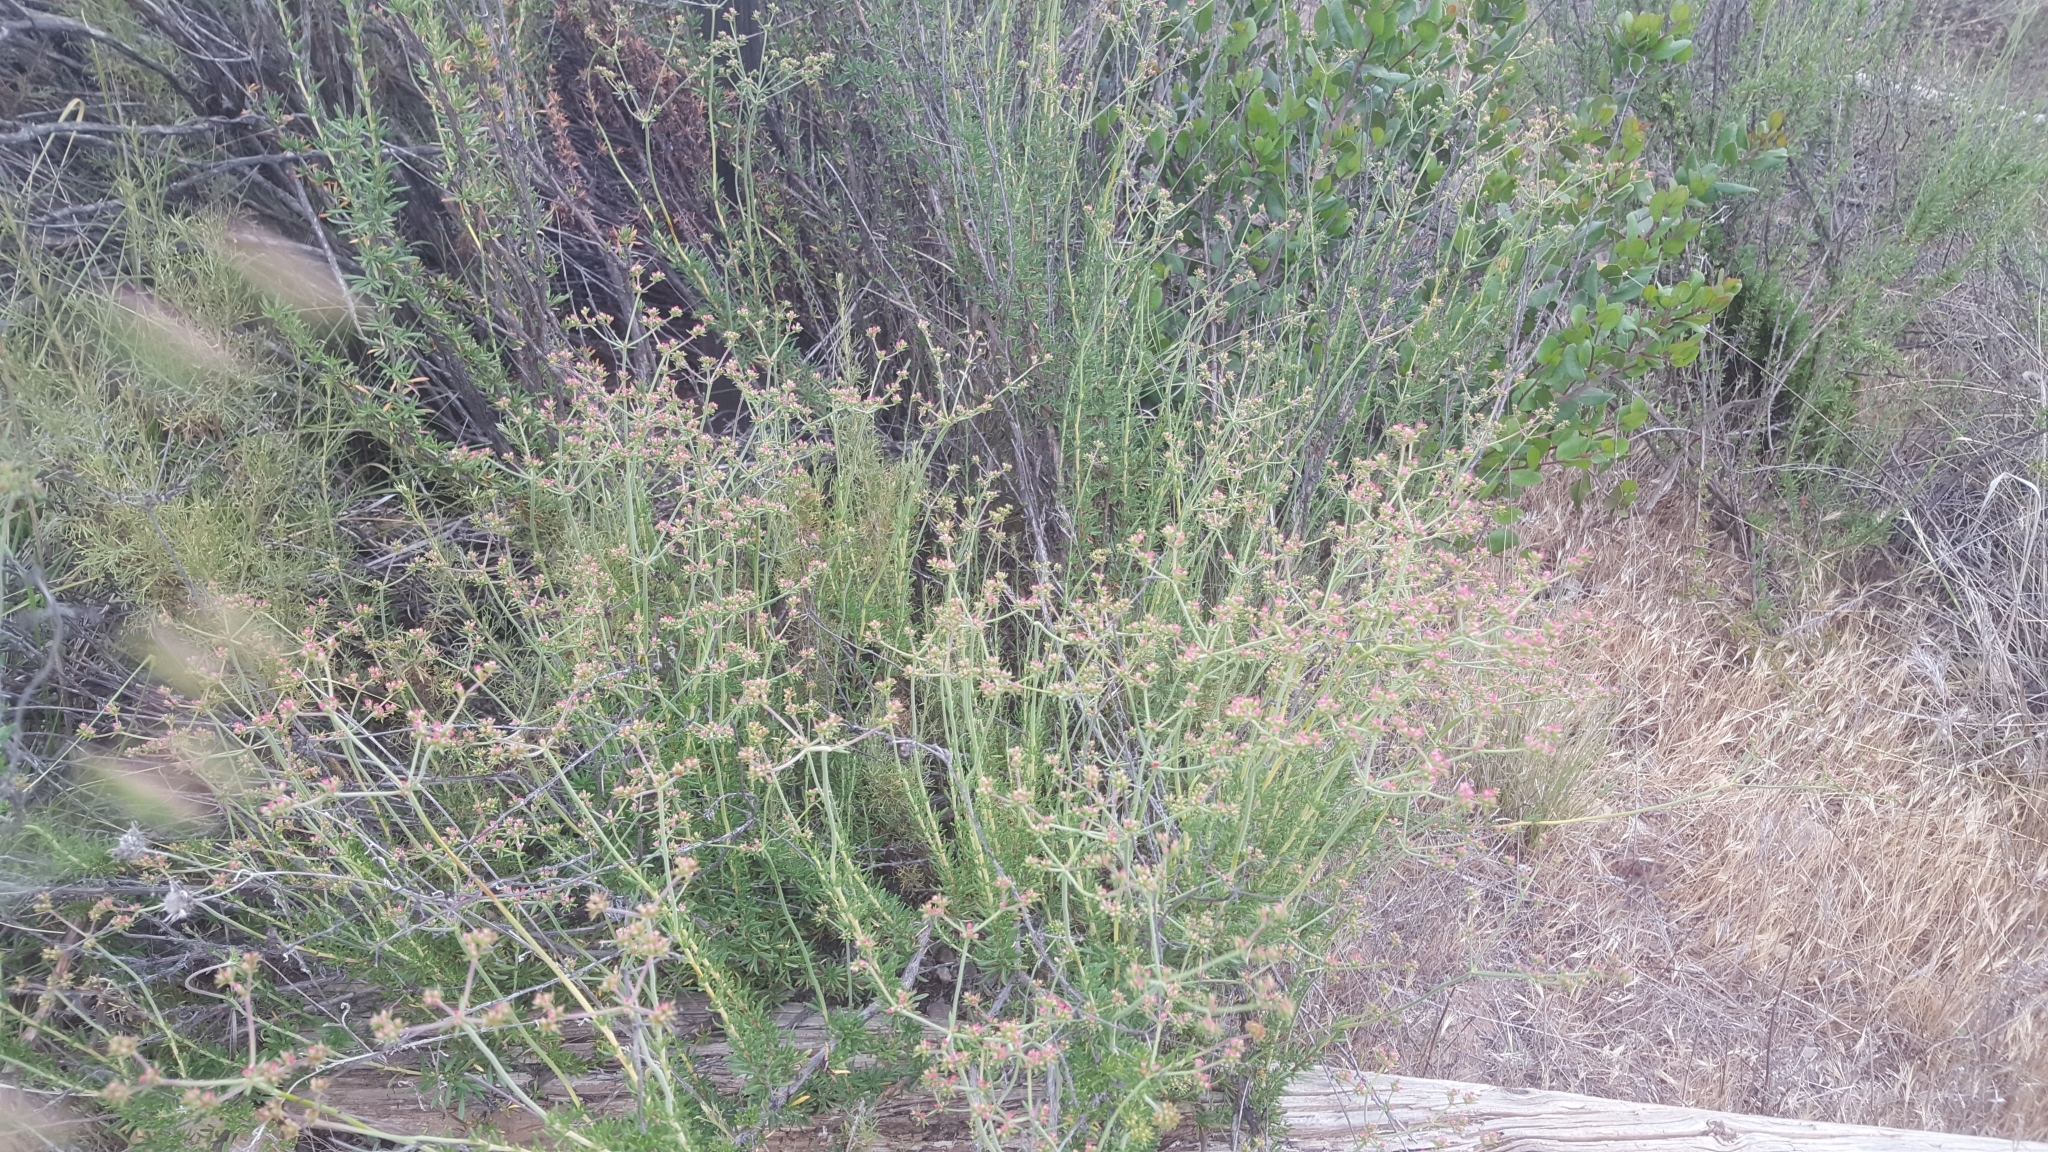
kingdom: Plantae
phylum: Tracheophyta
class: Magnoliopsida
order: Caryophyllales
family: Polygonaceae
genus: Eriogonum
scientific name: Eriogonum fasciculatum
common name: California wild buckwheat
